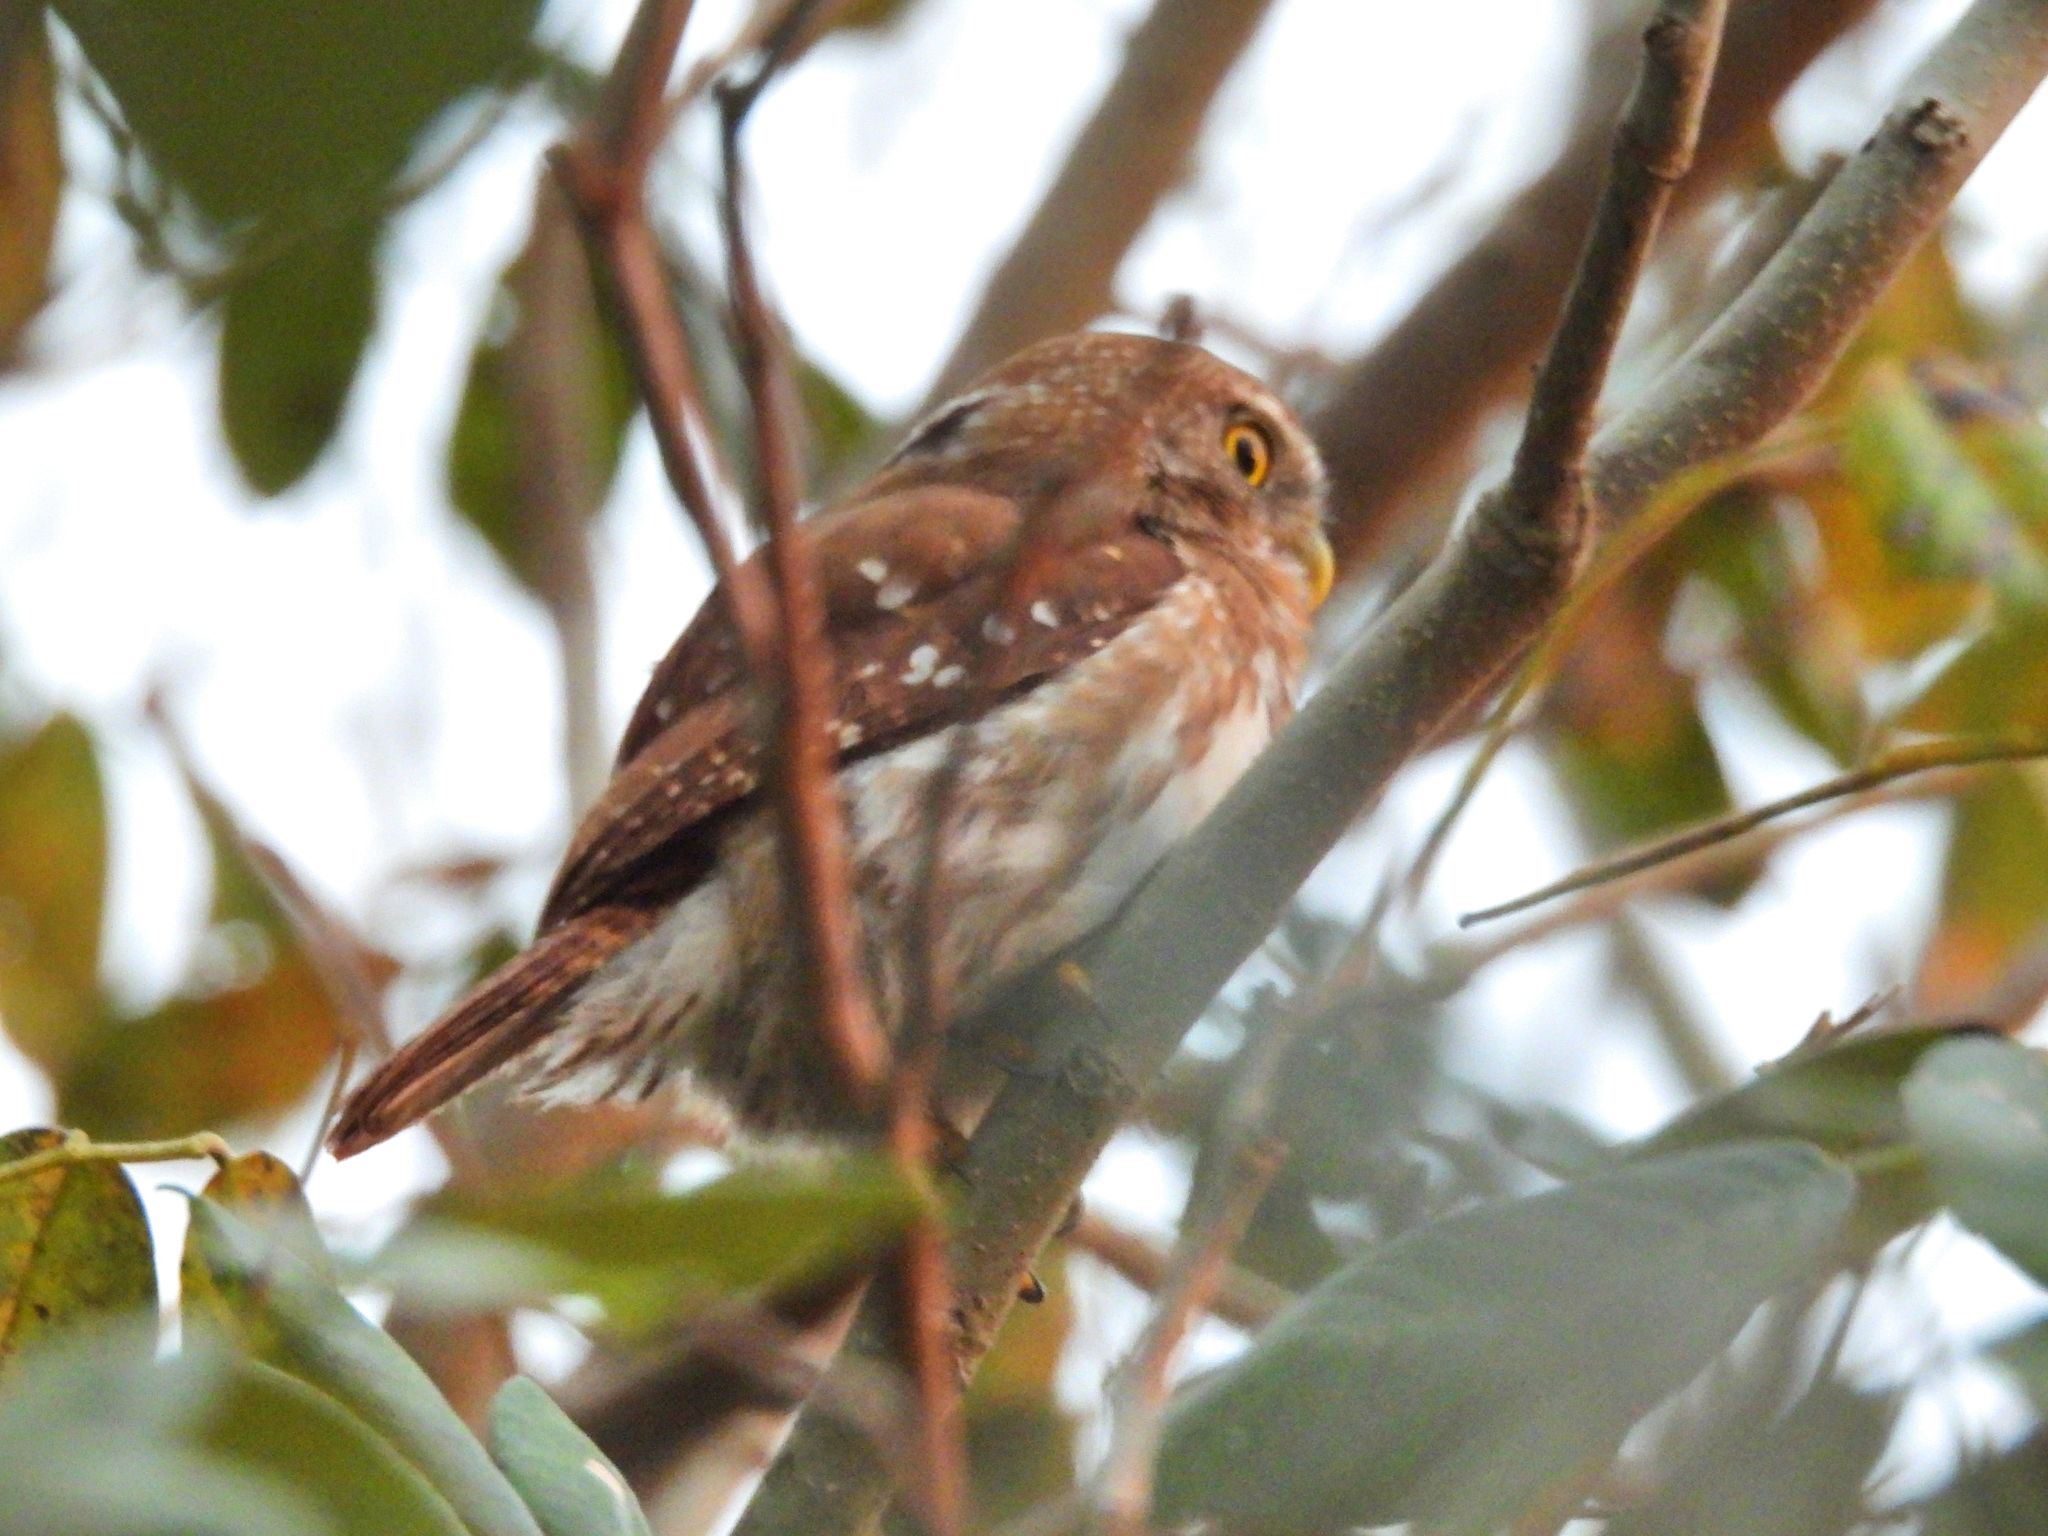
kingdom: Animalia
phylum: Chordata
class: Aves
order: Strigiformes
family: Strigidae
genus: Glaucidium
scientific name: Glaucidium brasilianum
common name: Ferruginous pygmy-owl
